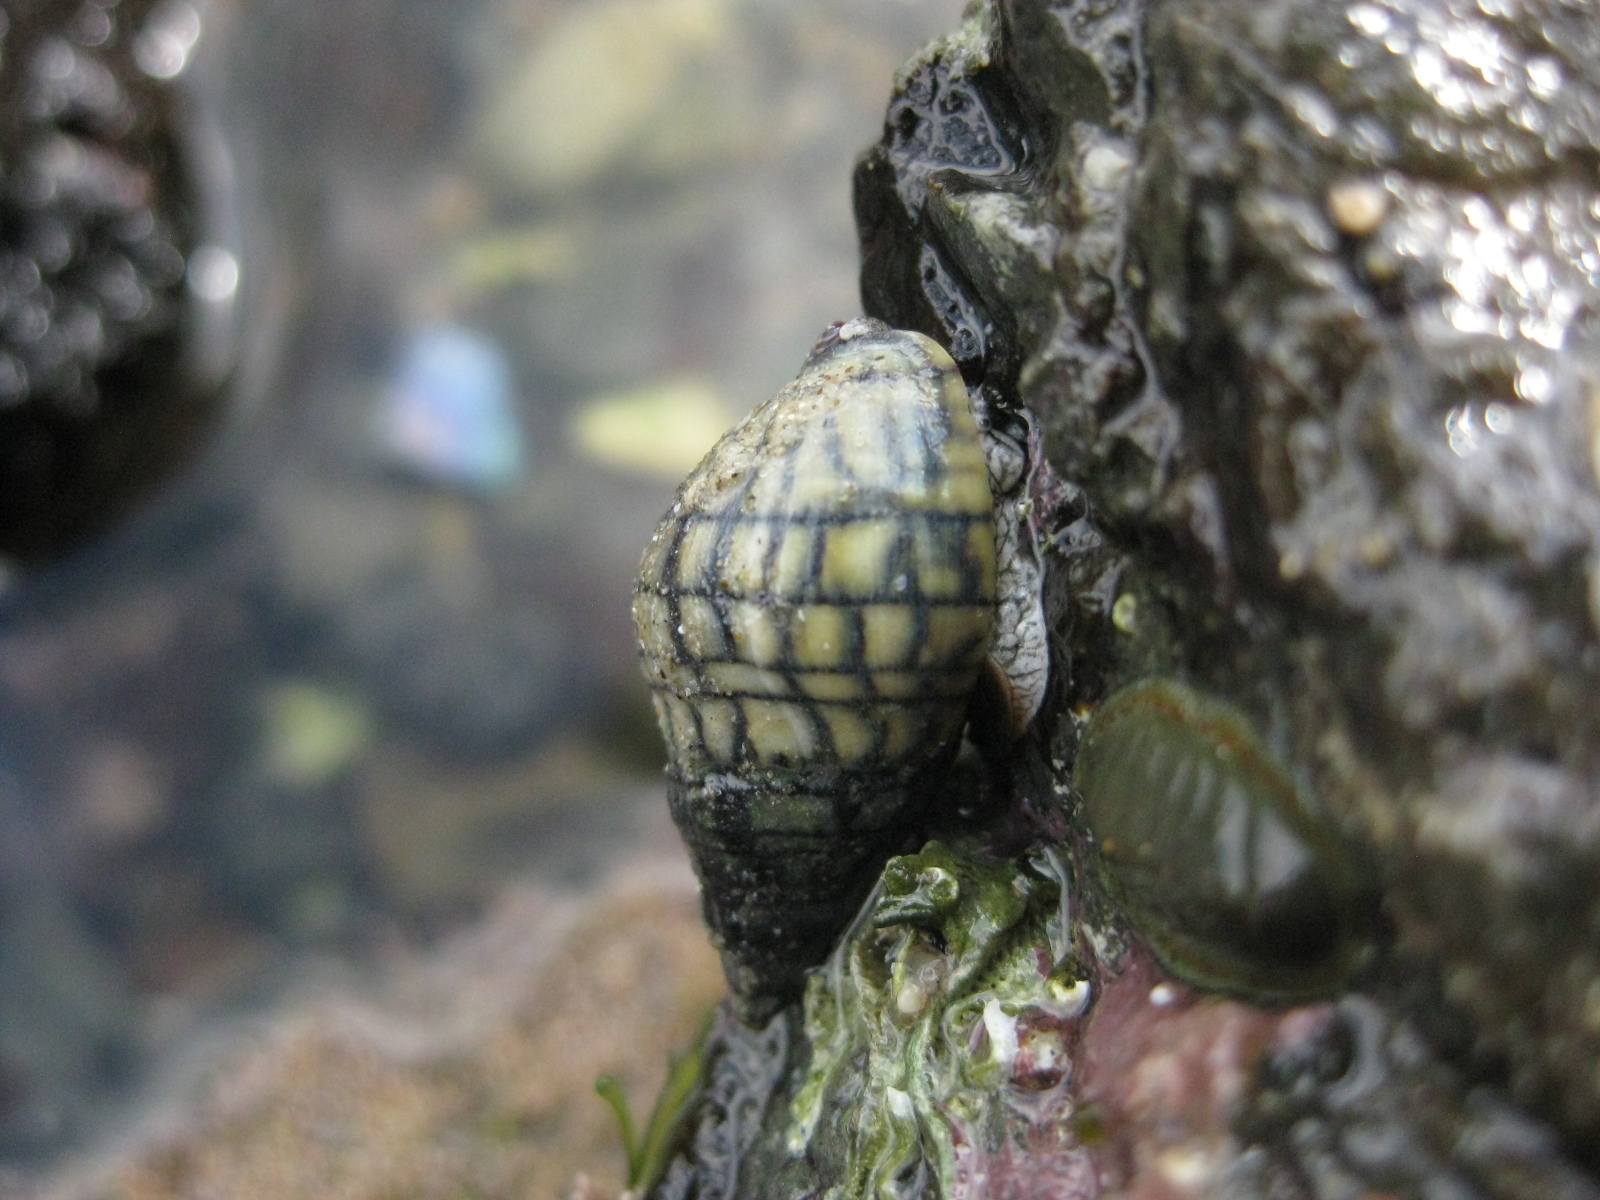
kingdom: Animalia
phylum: Mollusca
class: Gastropoda
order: Neogastropoda
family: Cominellidae
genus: Cominella
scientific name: Cominella virgata
